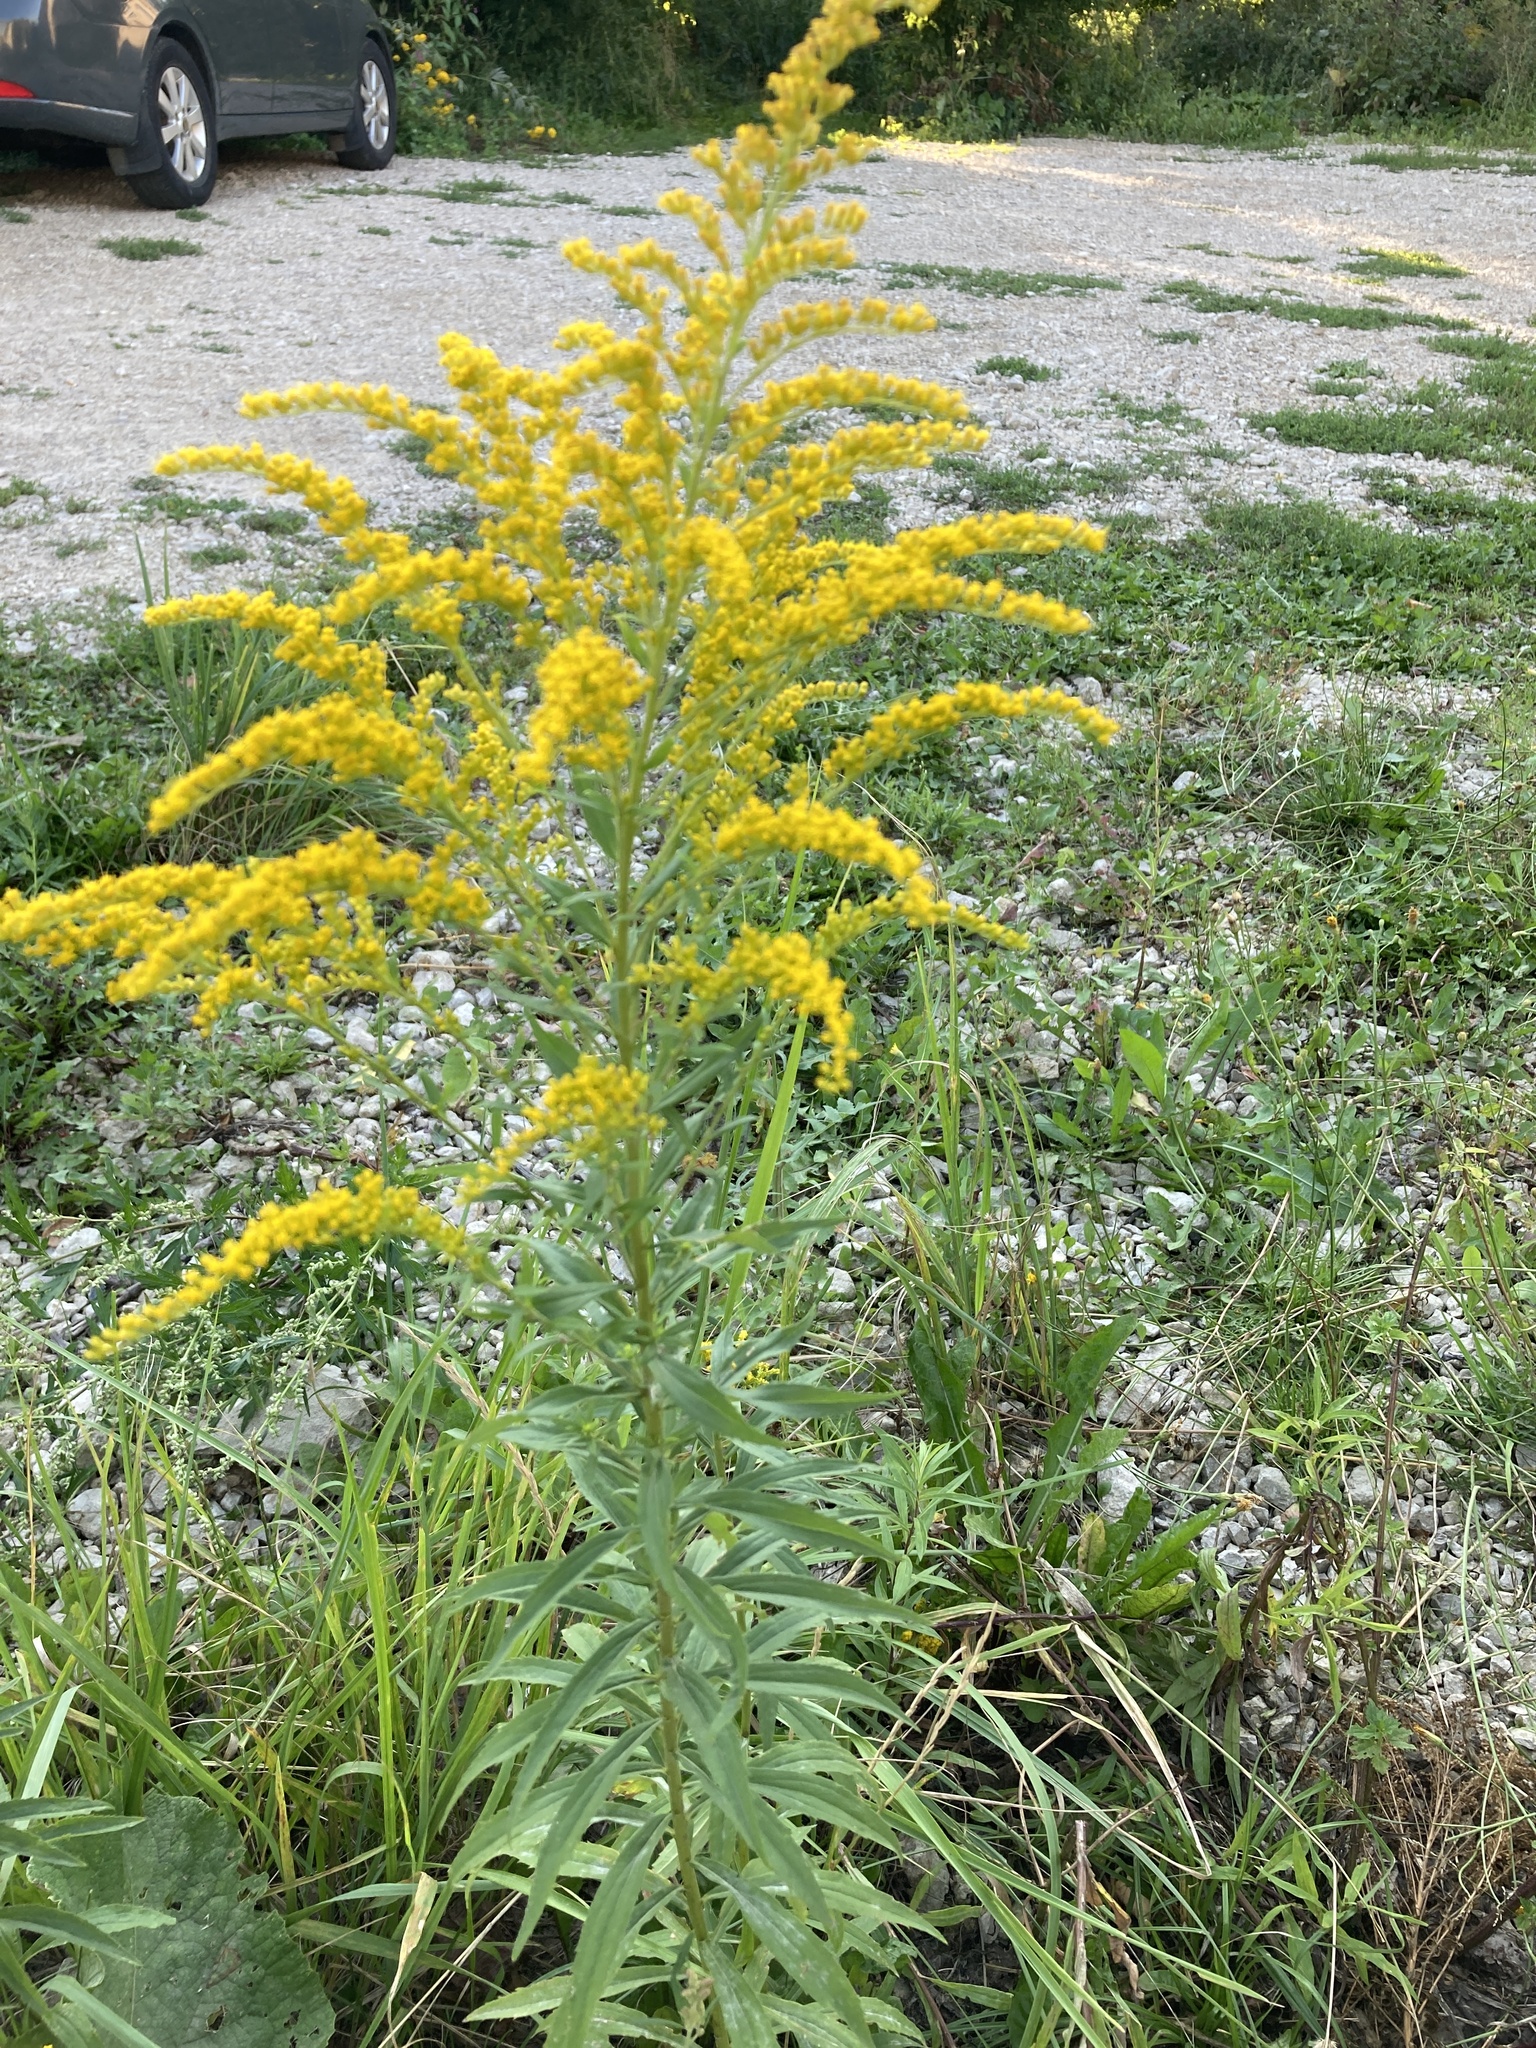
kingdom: Plantae
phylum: Tracheophyta
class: Magnoliopsida
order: Asterales
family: Asteraceae
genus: Solidago
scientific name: Solidago canadensis
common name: Canada goldenrod
